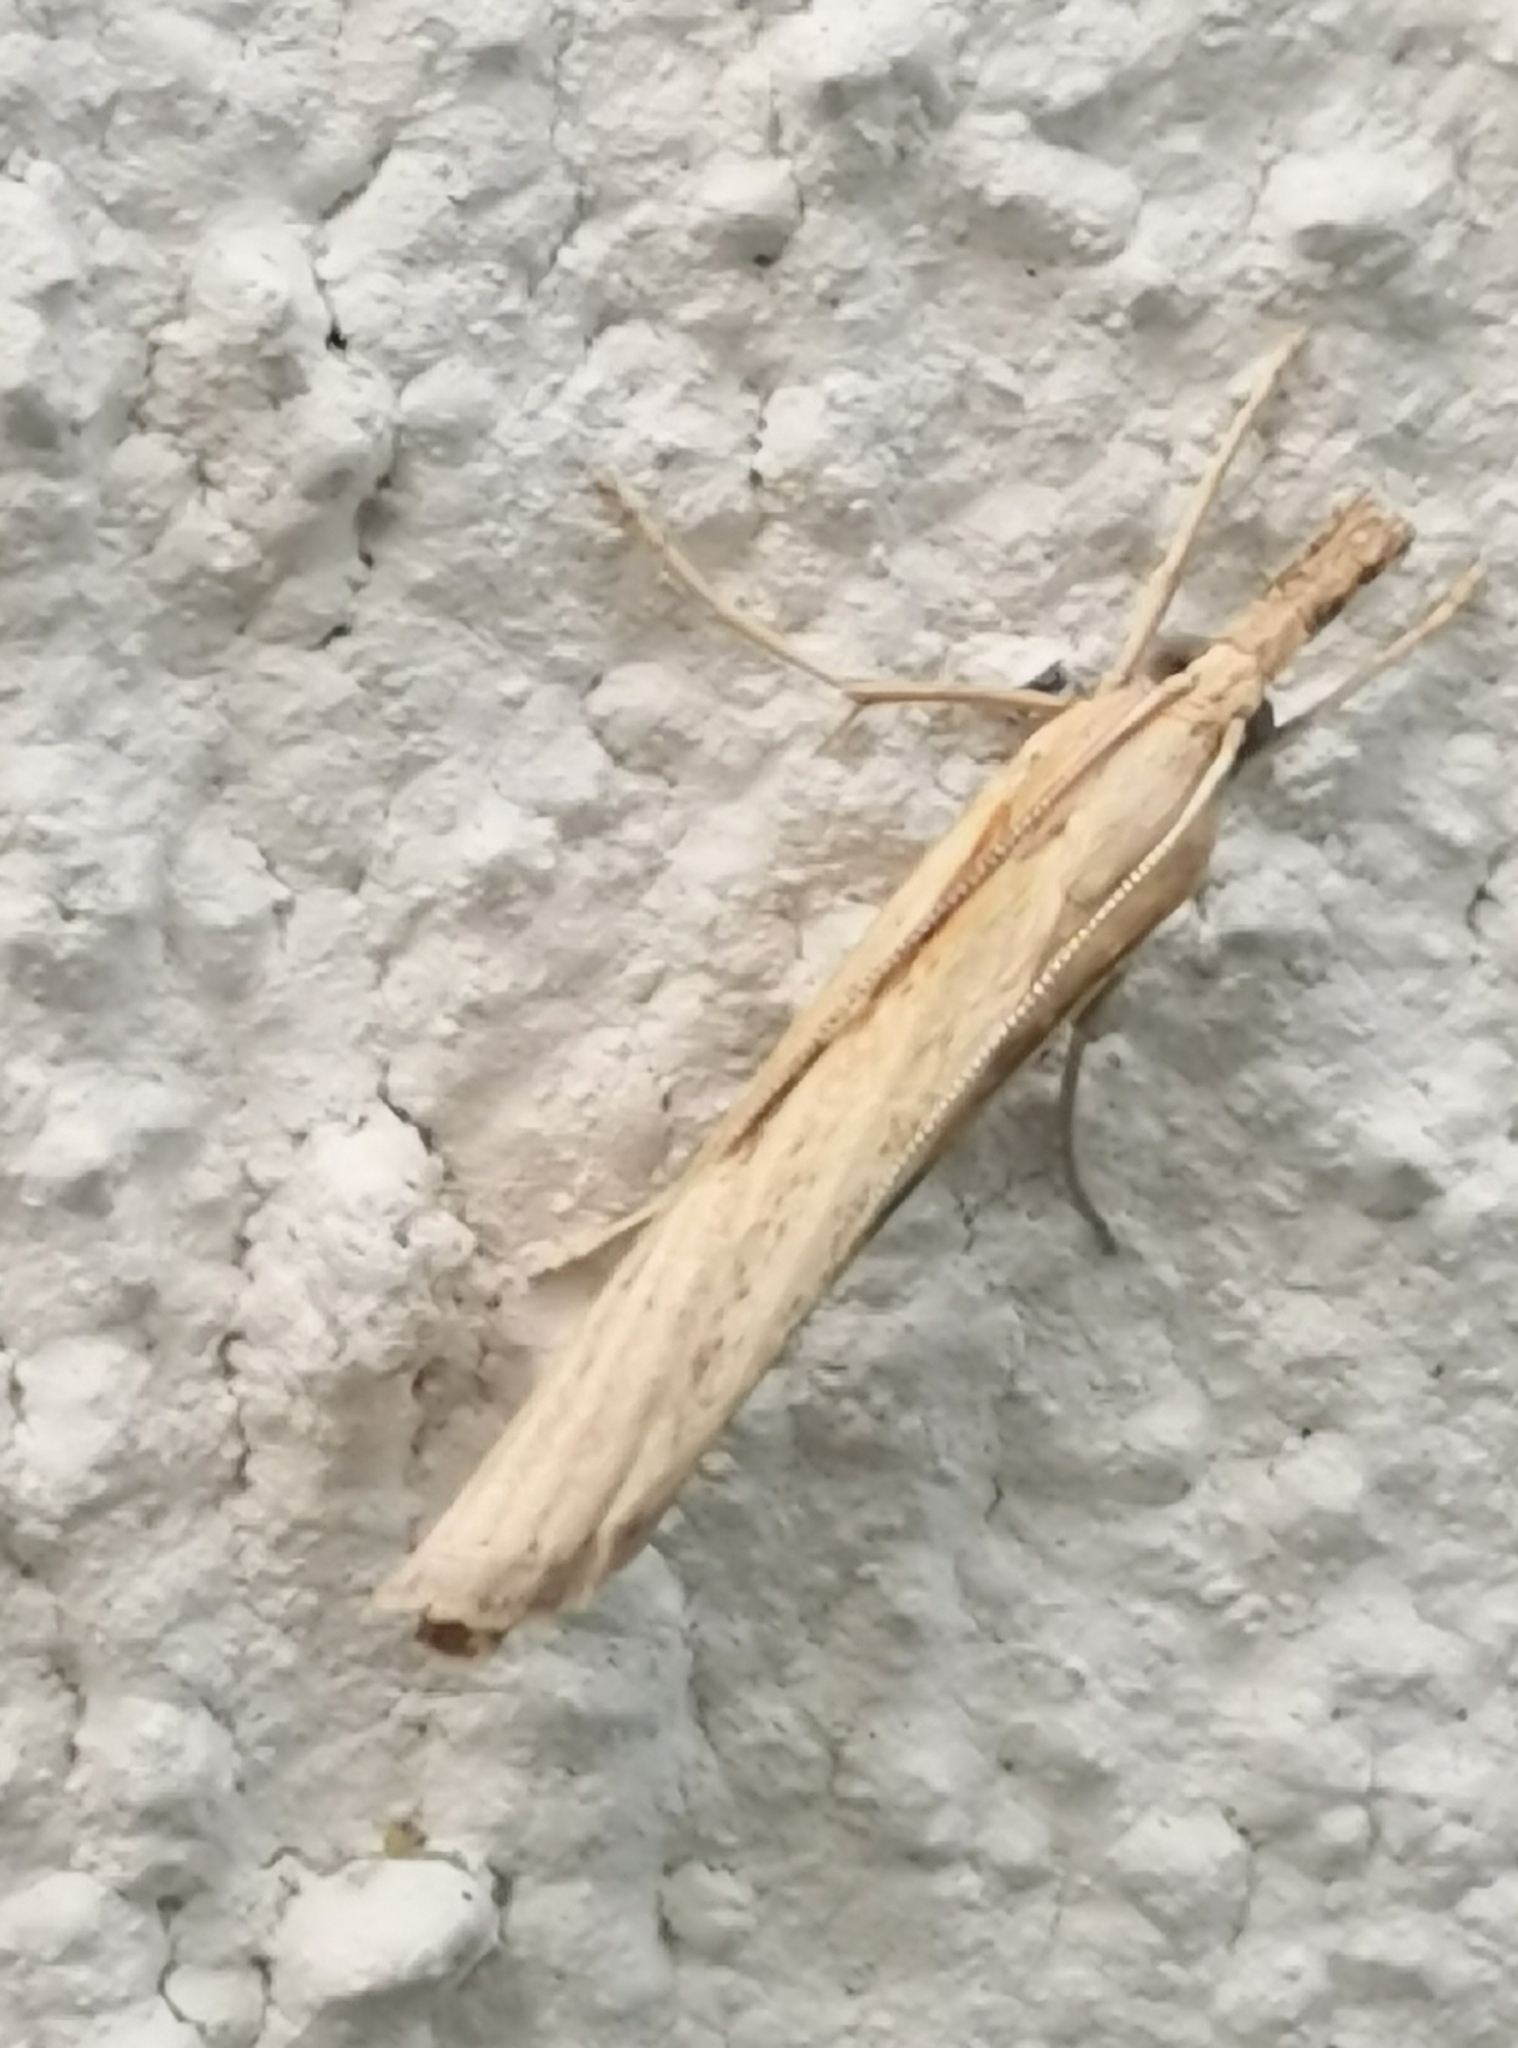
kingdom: Animalia
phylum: Arthropoda
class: Insecta
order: Lepidoptera
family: Crambidae
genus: Agriphila
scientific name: Agriphila inquinatella
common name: Barred grass-veneer
